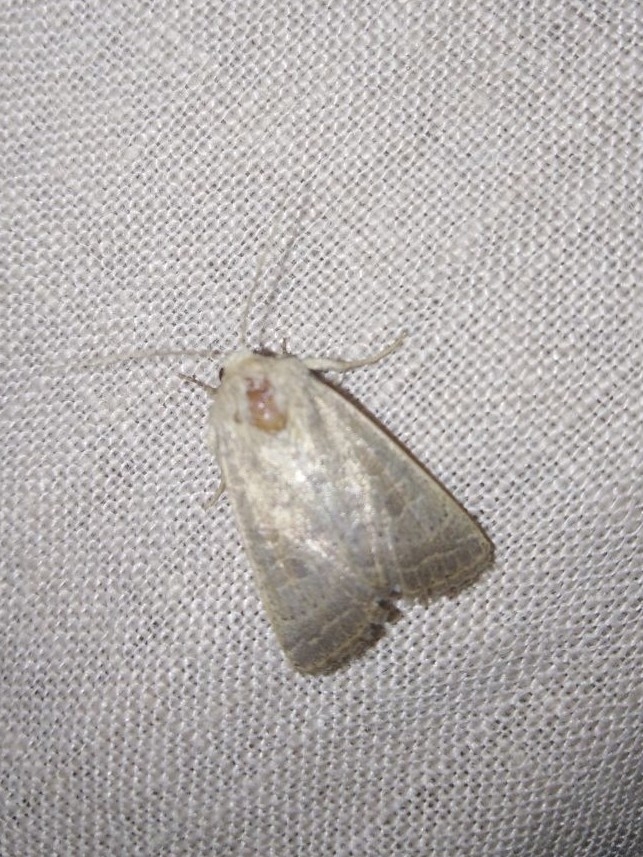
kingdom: Animalia
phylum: Arthropoda
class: Insecta
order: Lepidoptera
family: Noctuidae
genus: Hoplodrina
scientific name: Hoplodrina ambigua
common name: Vine's rustic
